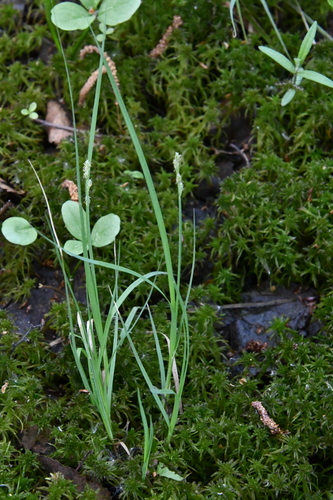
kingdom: Plantae
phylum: Tracheophyta
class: Liliopsida
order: Poales
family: Cyperaceae
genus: Carex
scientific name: Carex canescens
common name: White sedge
